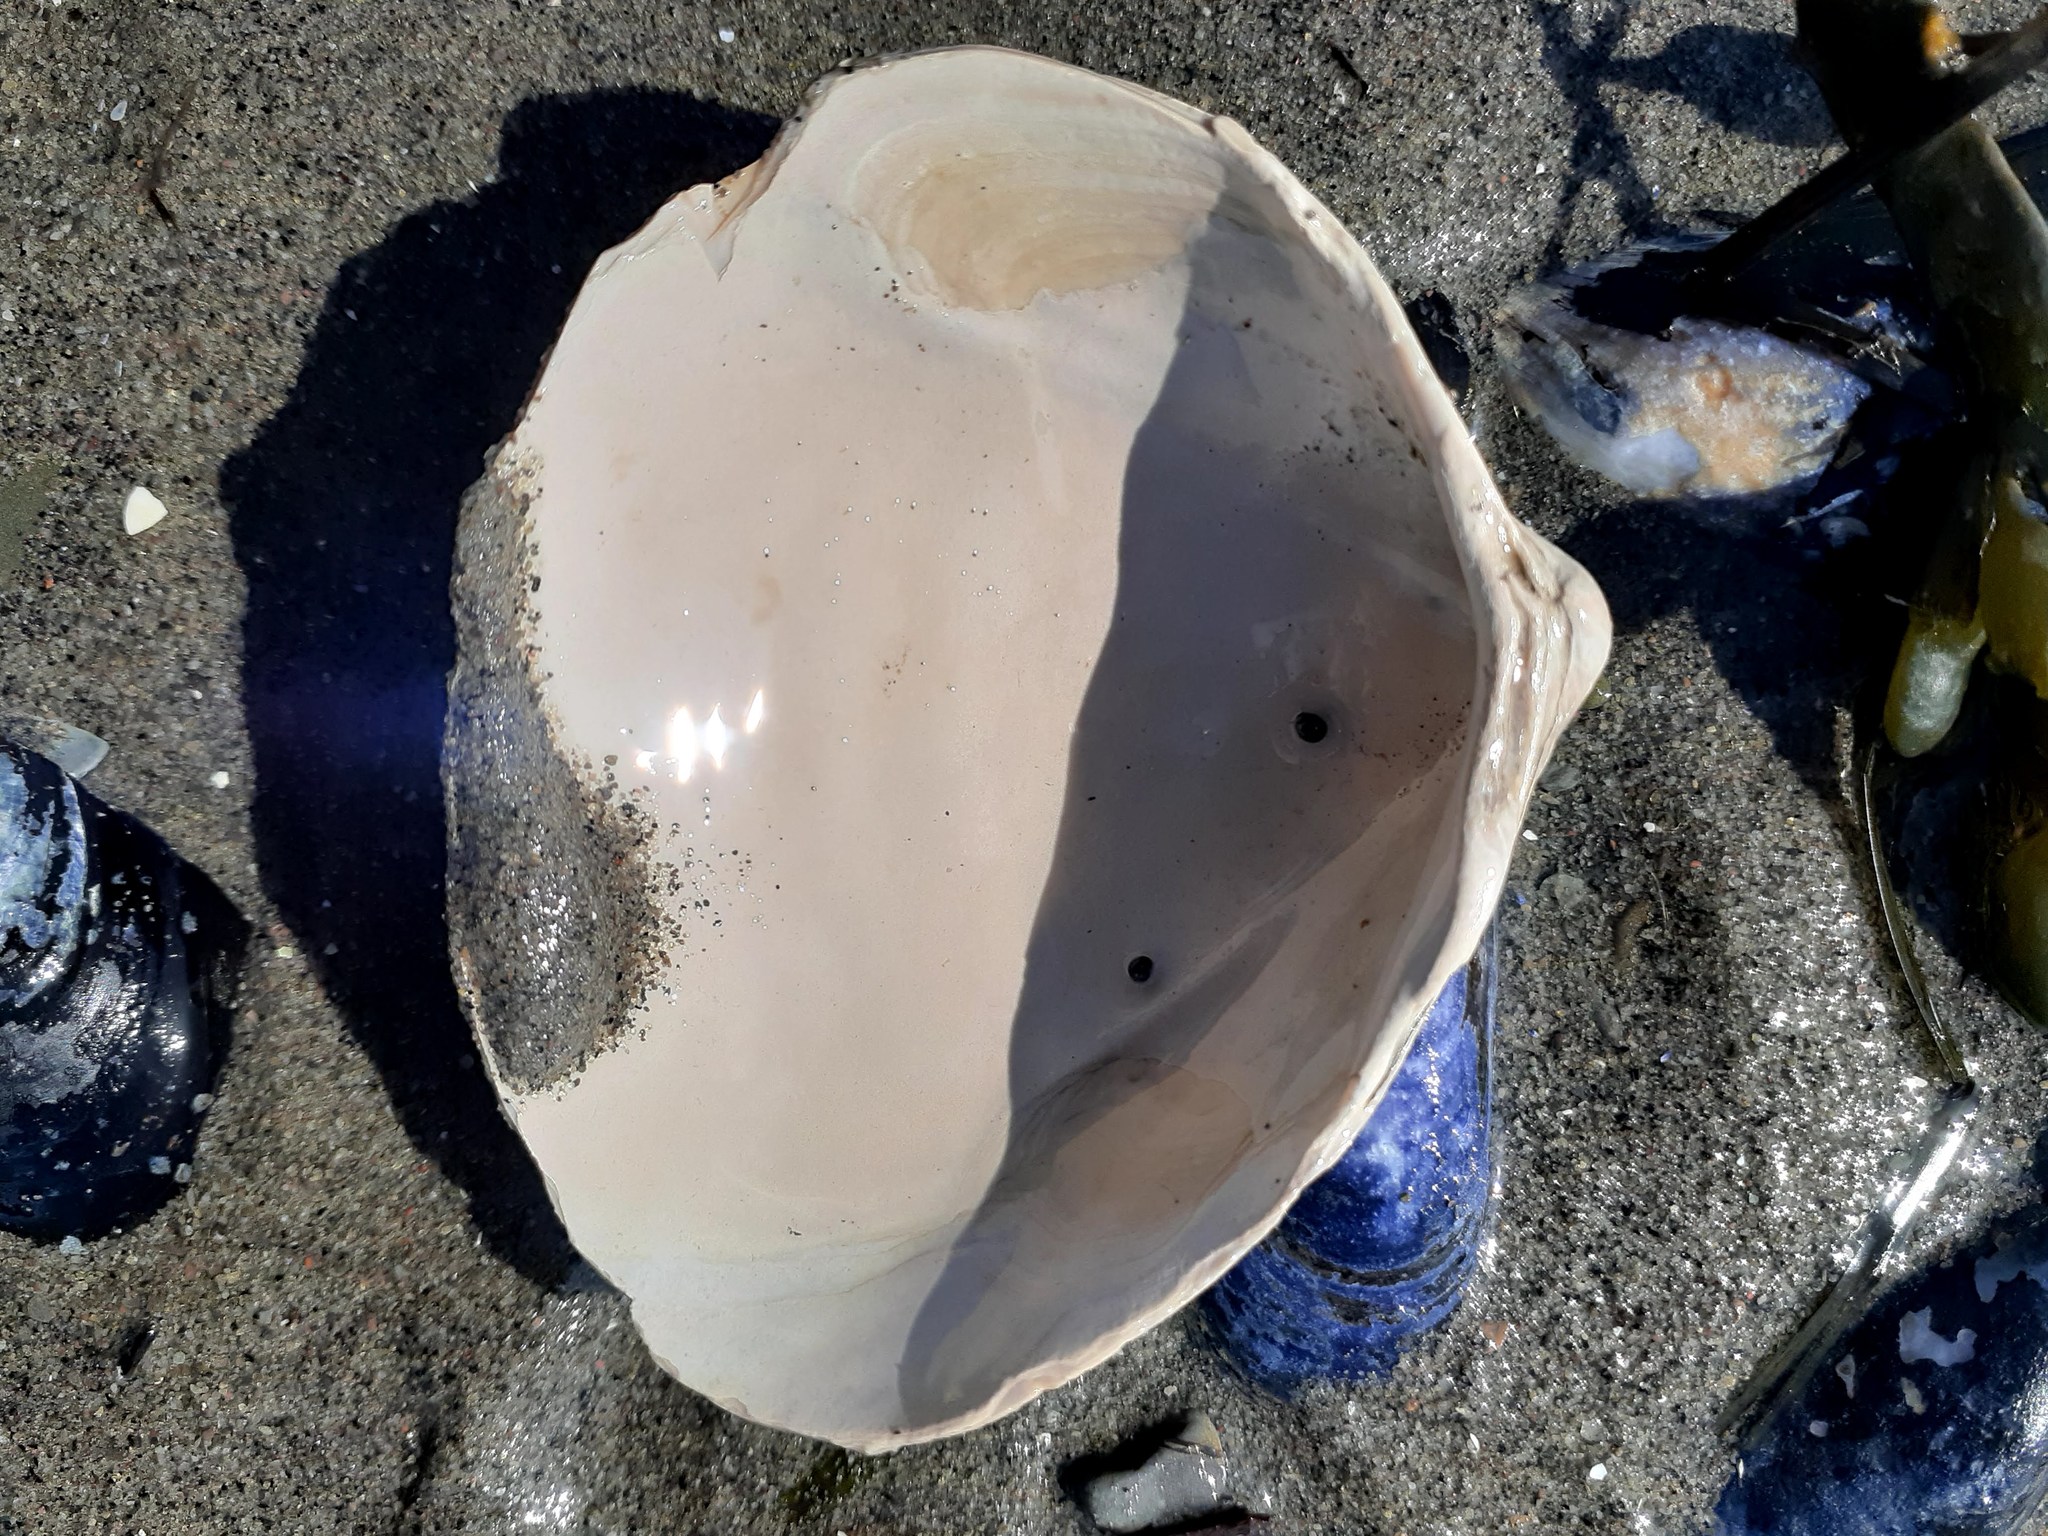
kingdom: Animalia
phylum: Mollusca
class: Bivalvia
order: Cardiida
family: Cardiidae
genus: Serripes
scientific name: Serripes groenlandicus
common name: Greenland cockle
